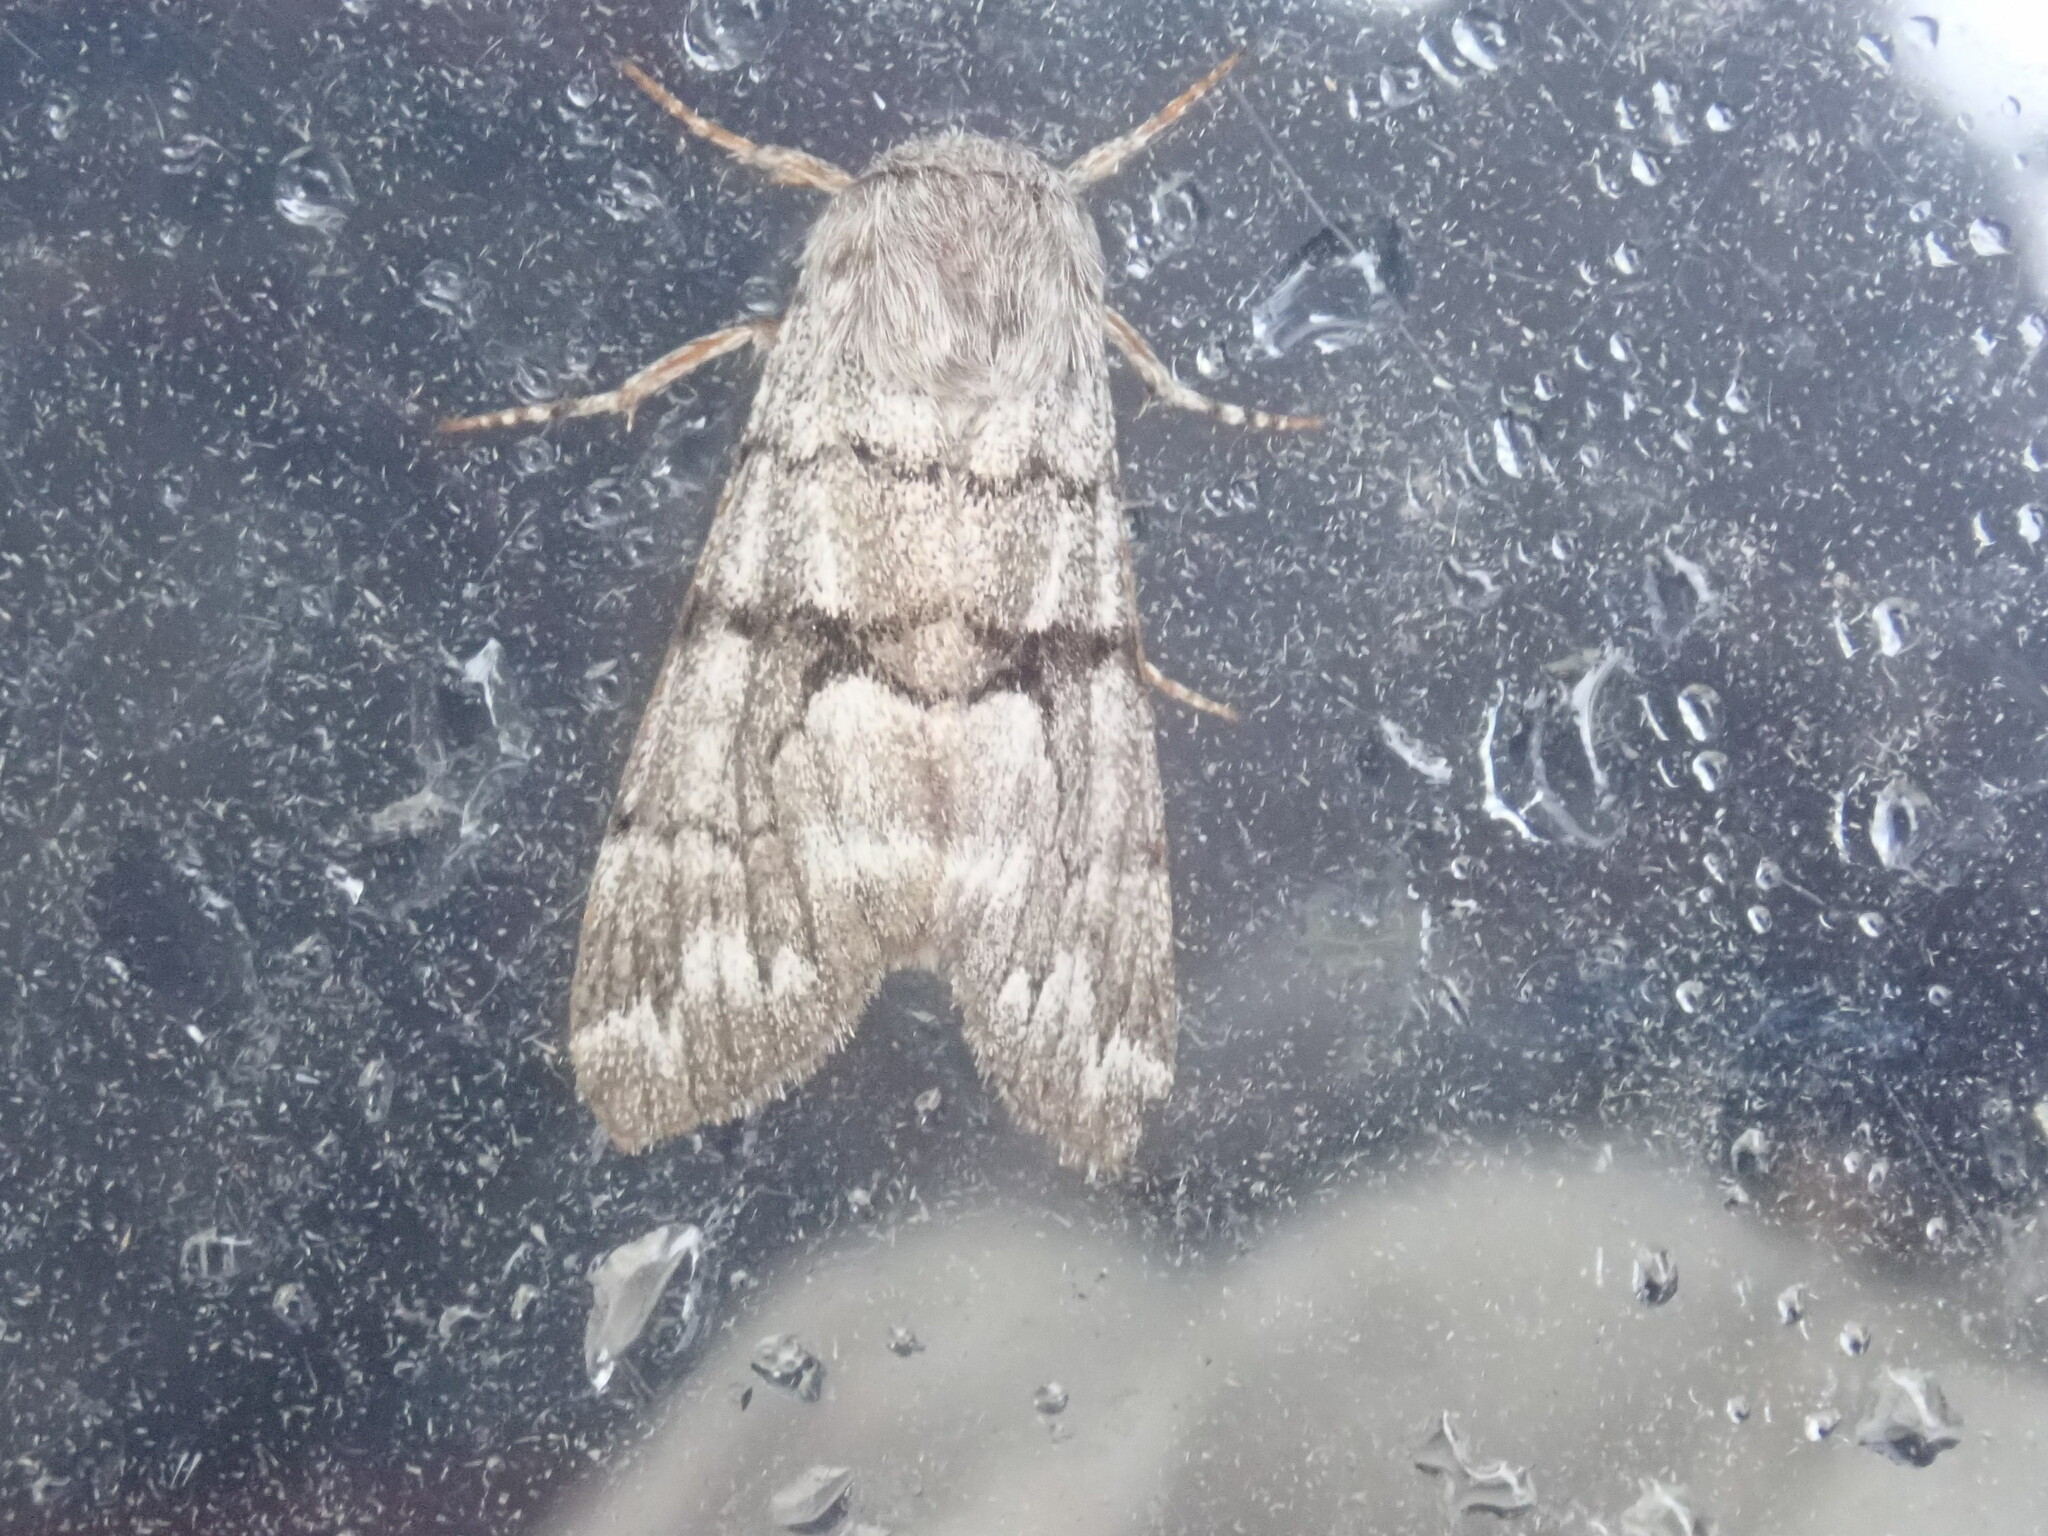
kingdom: Animalia
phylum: Arthropoda
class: Insecta
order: Lepidoptera
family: Noctuidae
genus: Panthea
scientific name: Panthea furcilla
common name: Eastern panthea moth
